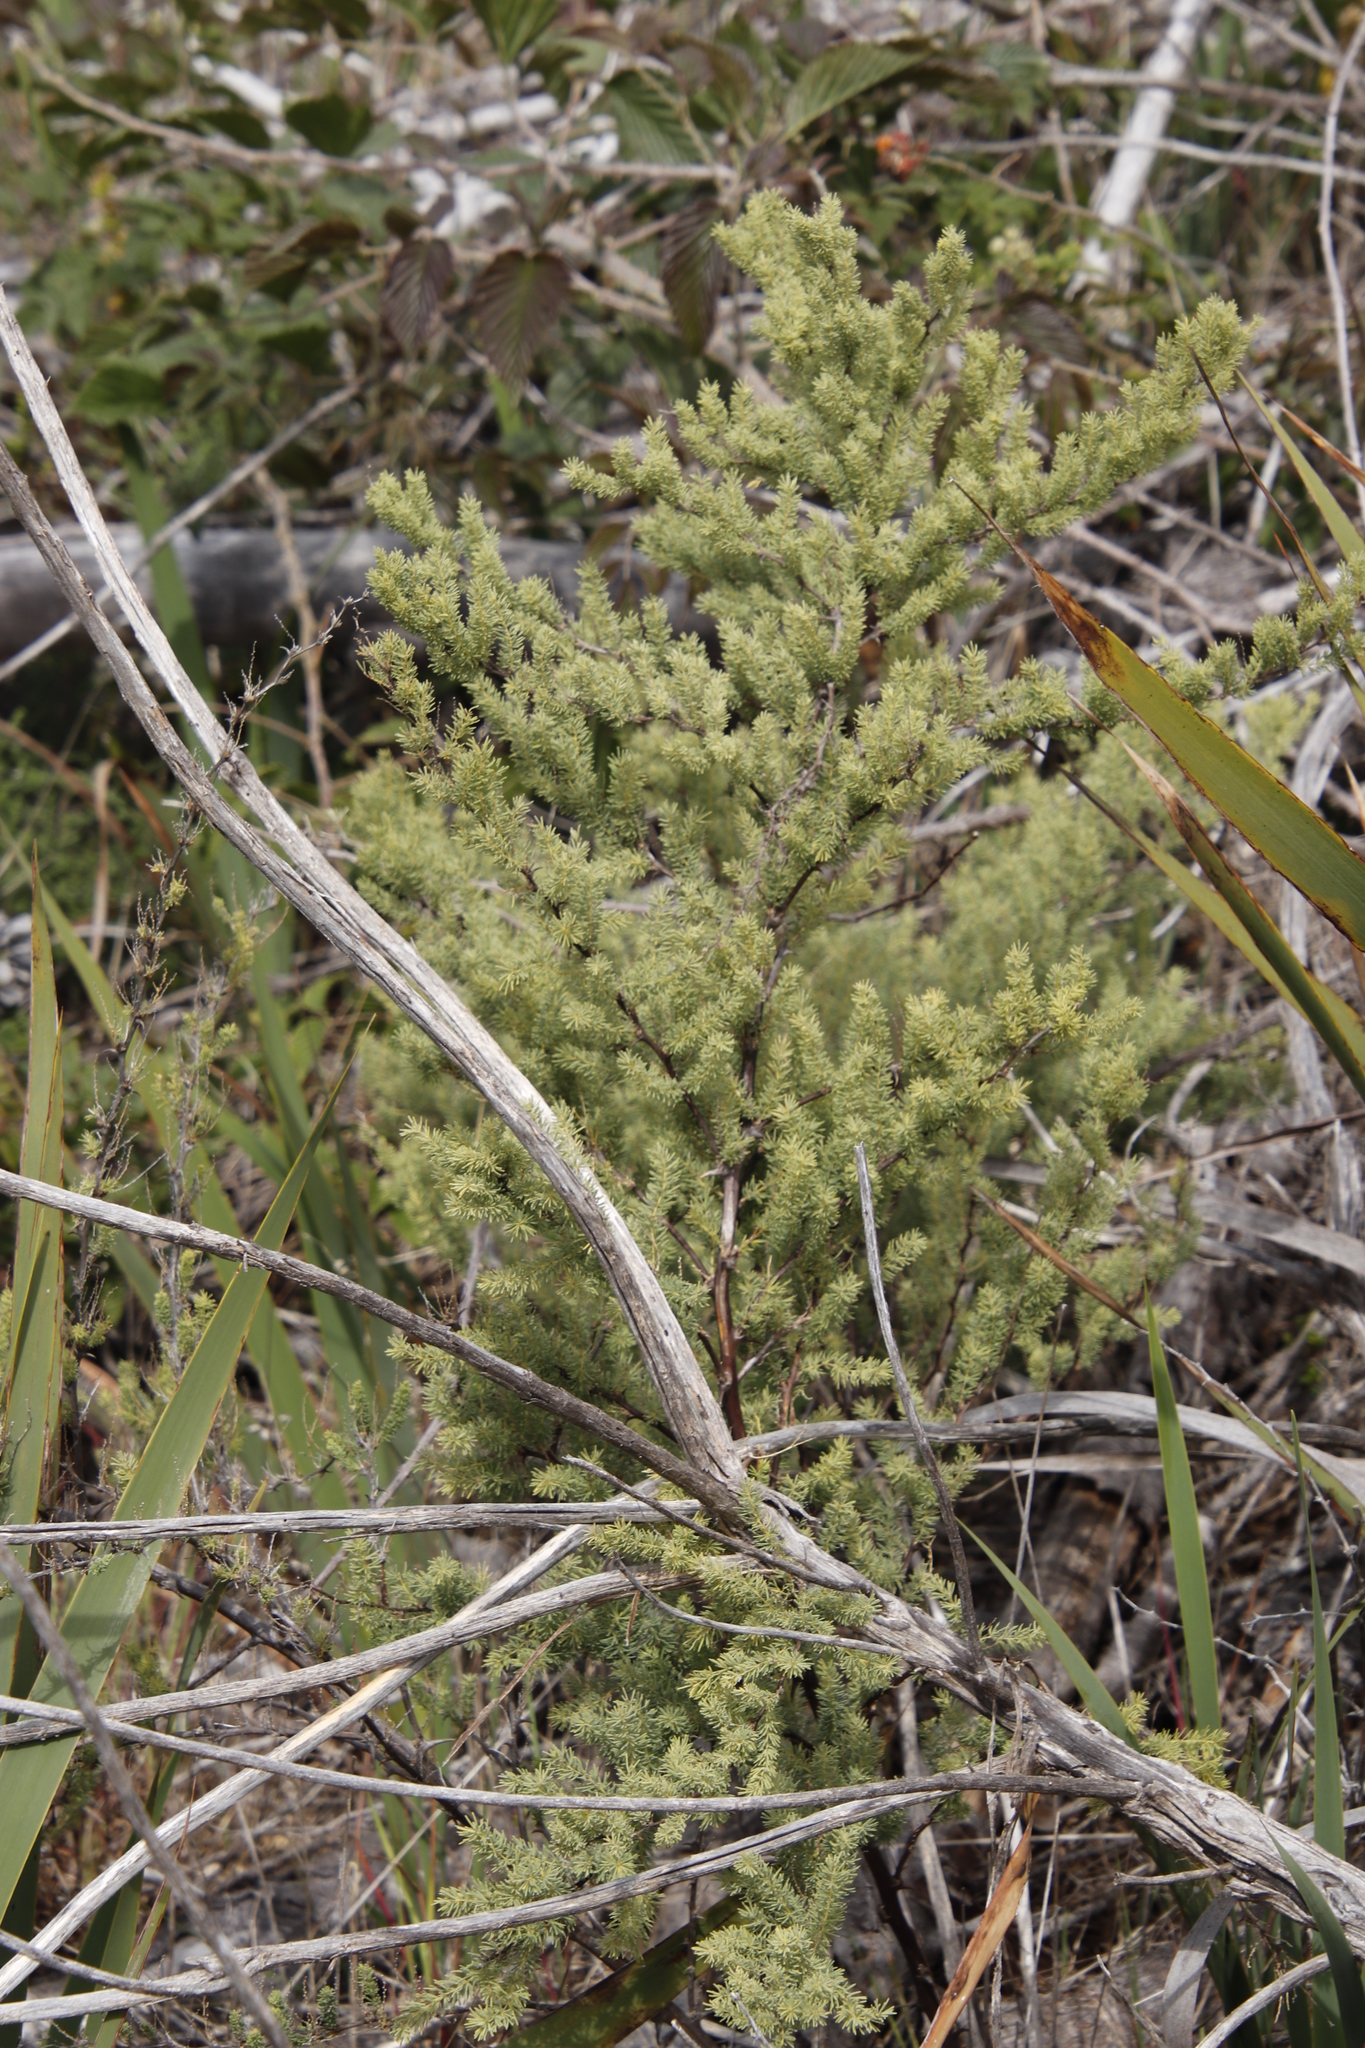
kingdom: Plantae
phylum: Tracheophyta
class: Liliopsida
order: Asparagales
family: Asparagaceae
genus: Asparagus
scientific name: Asparagus rubicundus
